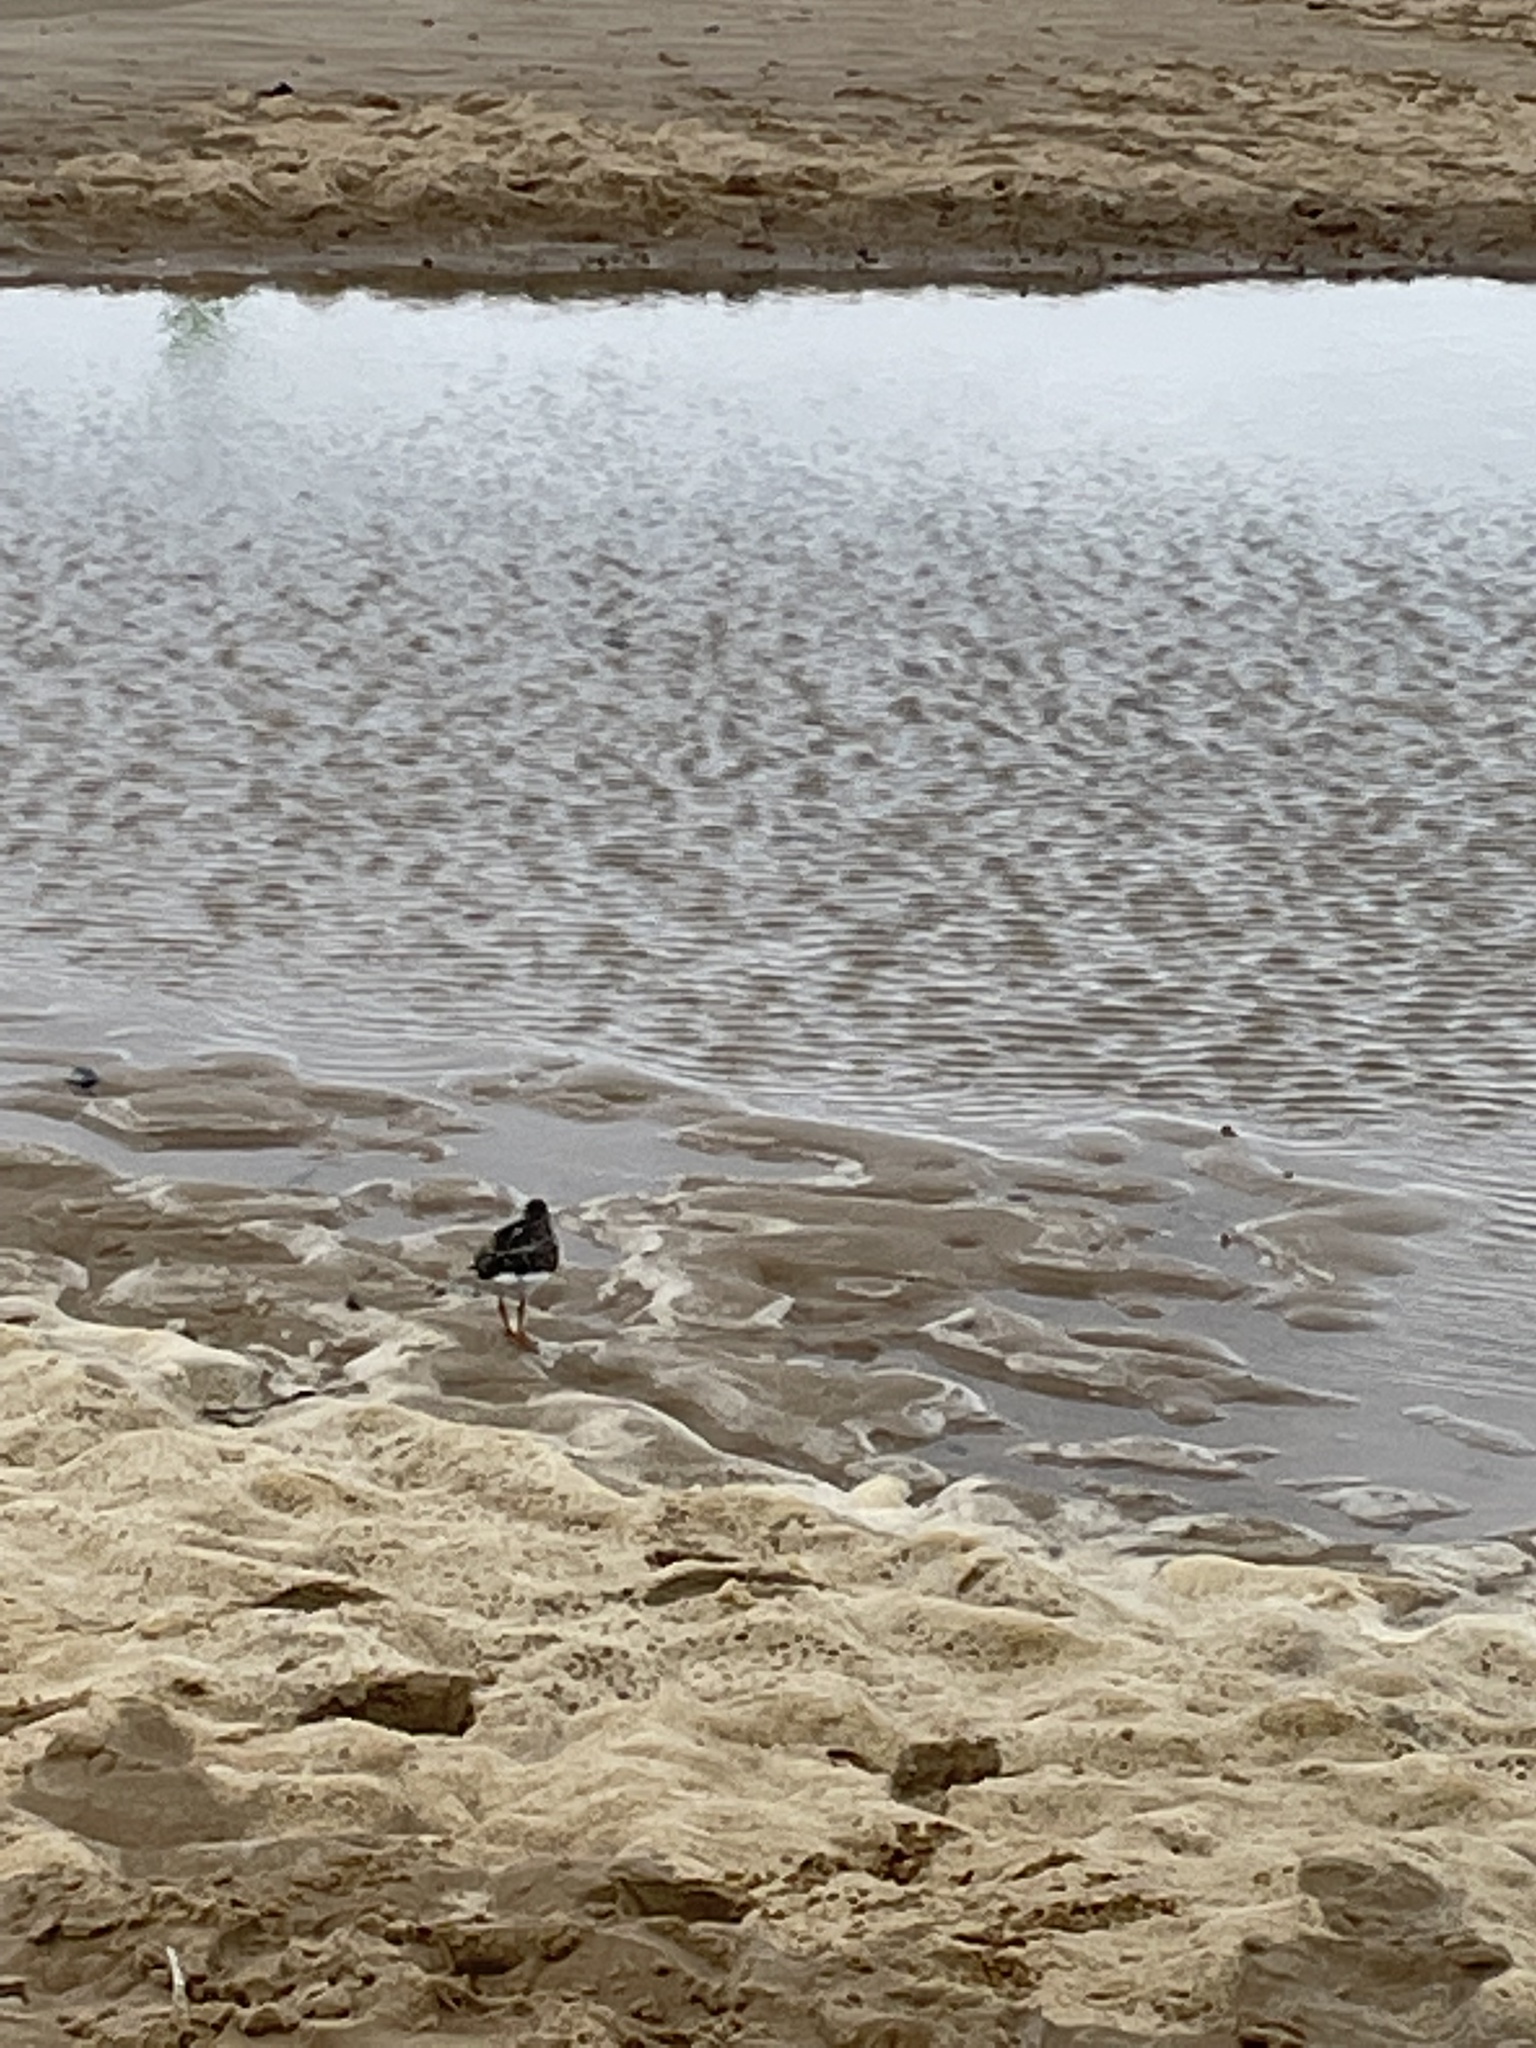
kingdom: Animalia
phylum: Chordata
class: Aves
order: Charadriiformes
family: Scolopacidae
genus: Arenaria
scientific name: Arenaria interpres
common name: Ruddy turnstone
